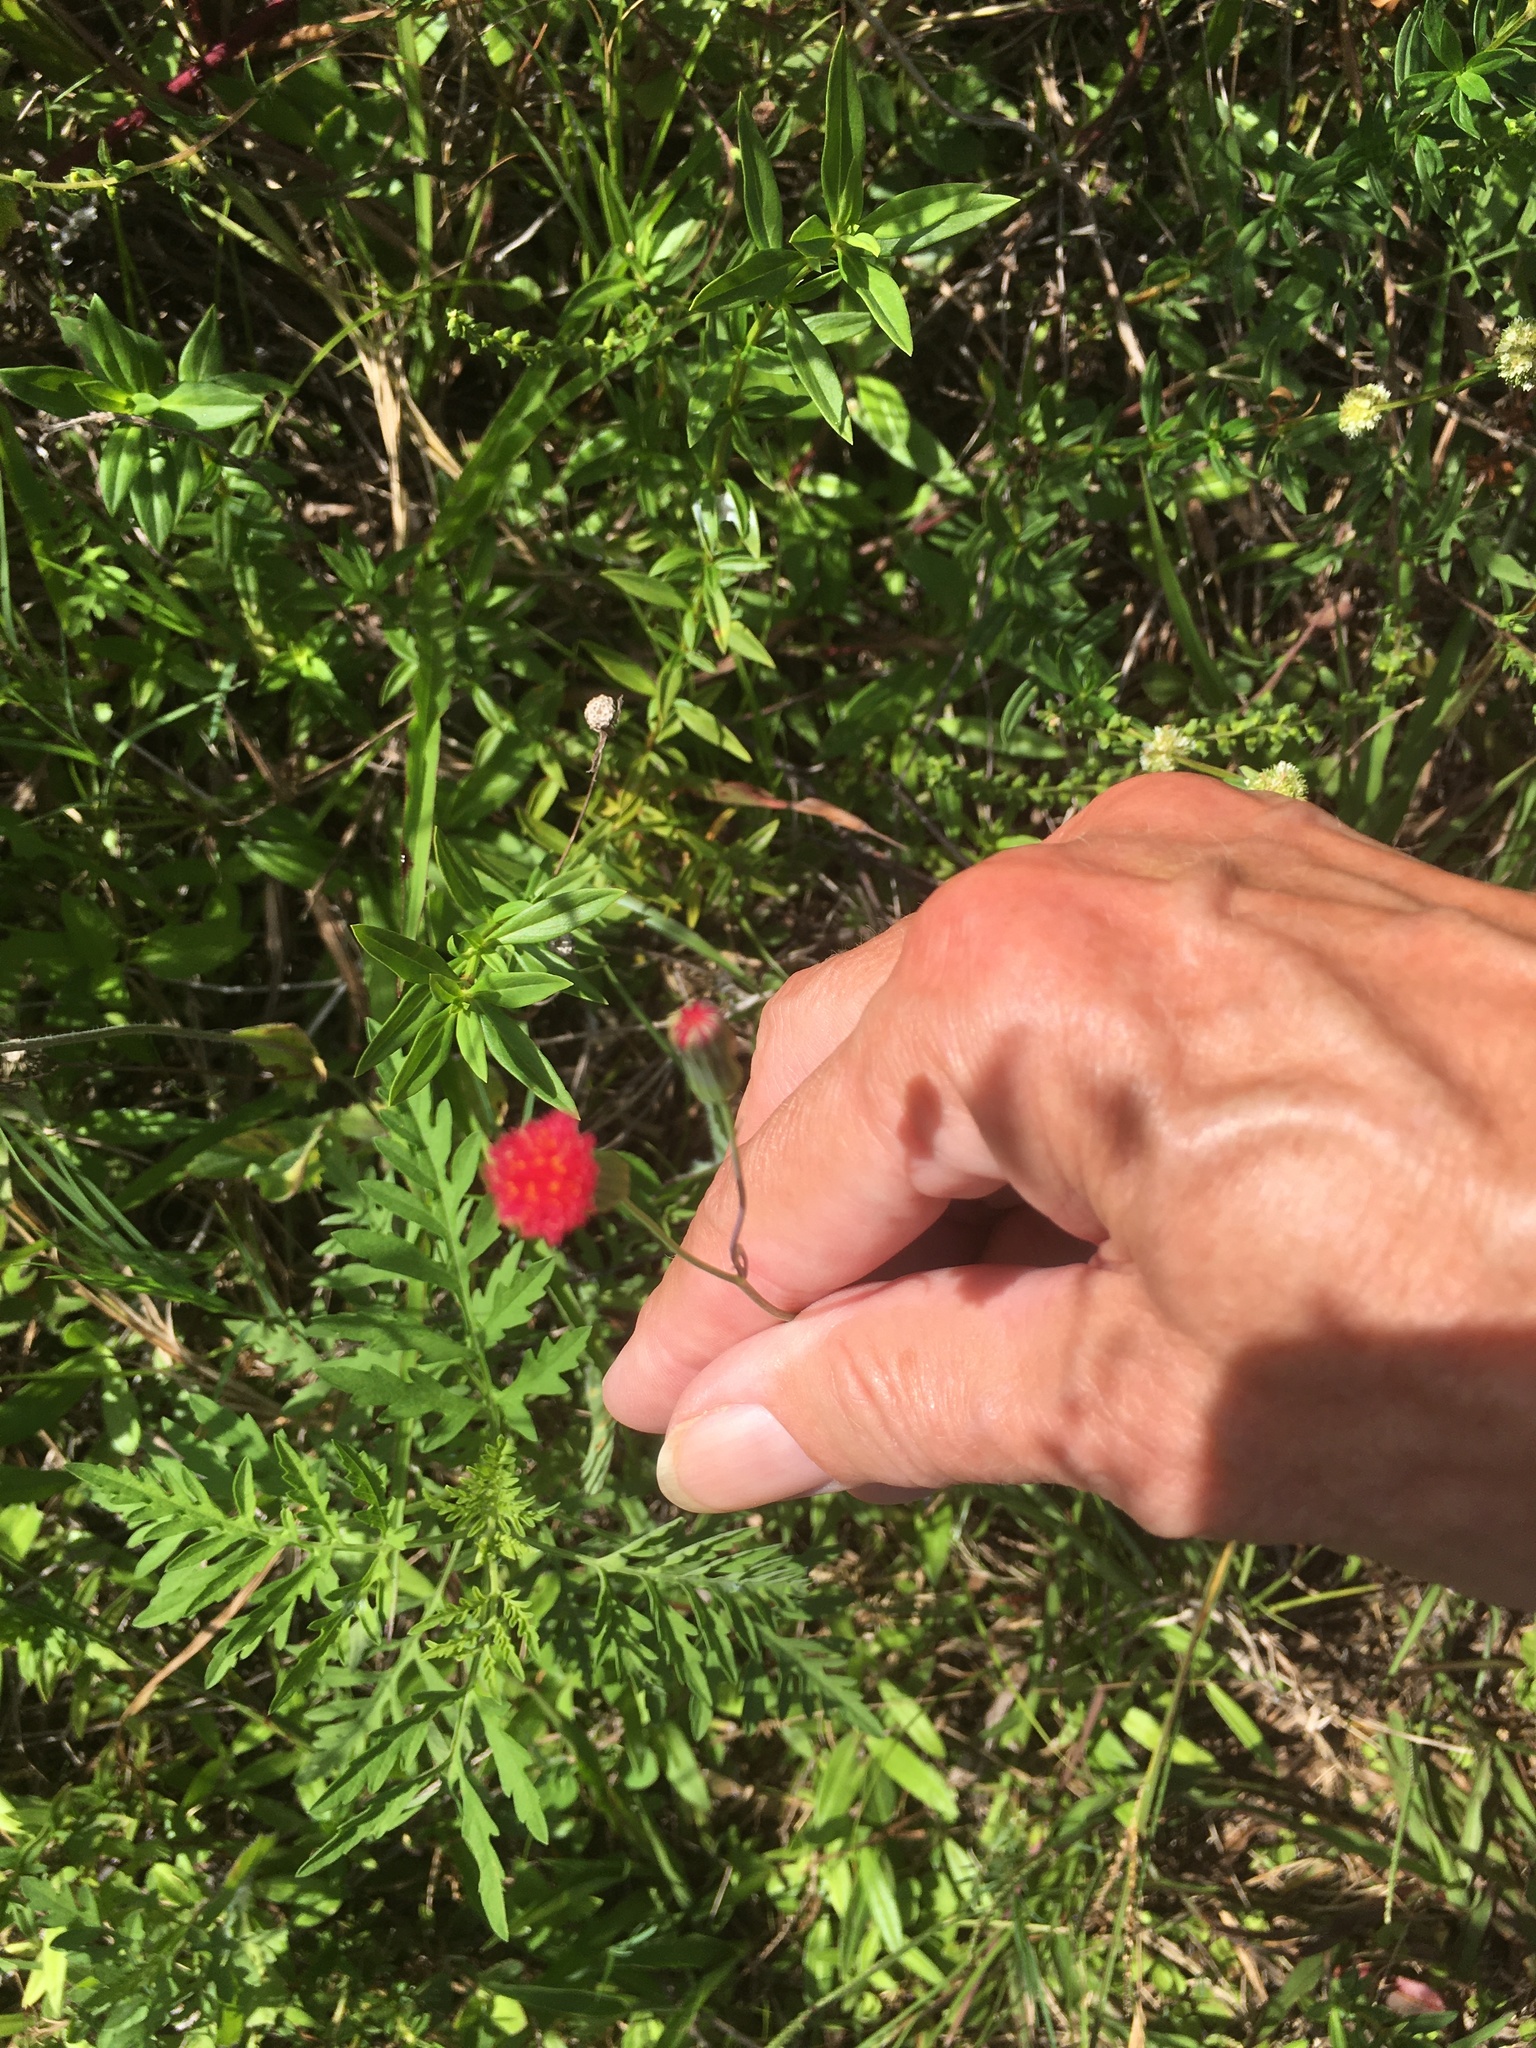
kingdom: Plantae
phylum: Tracheophyta
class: Magnoliopsida
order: Asterales
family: Asteraceae
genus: Emilia
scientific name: Emilia fosbergii
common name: Florida tasselflower
